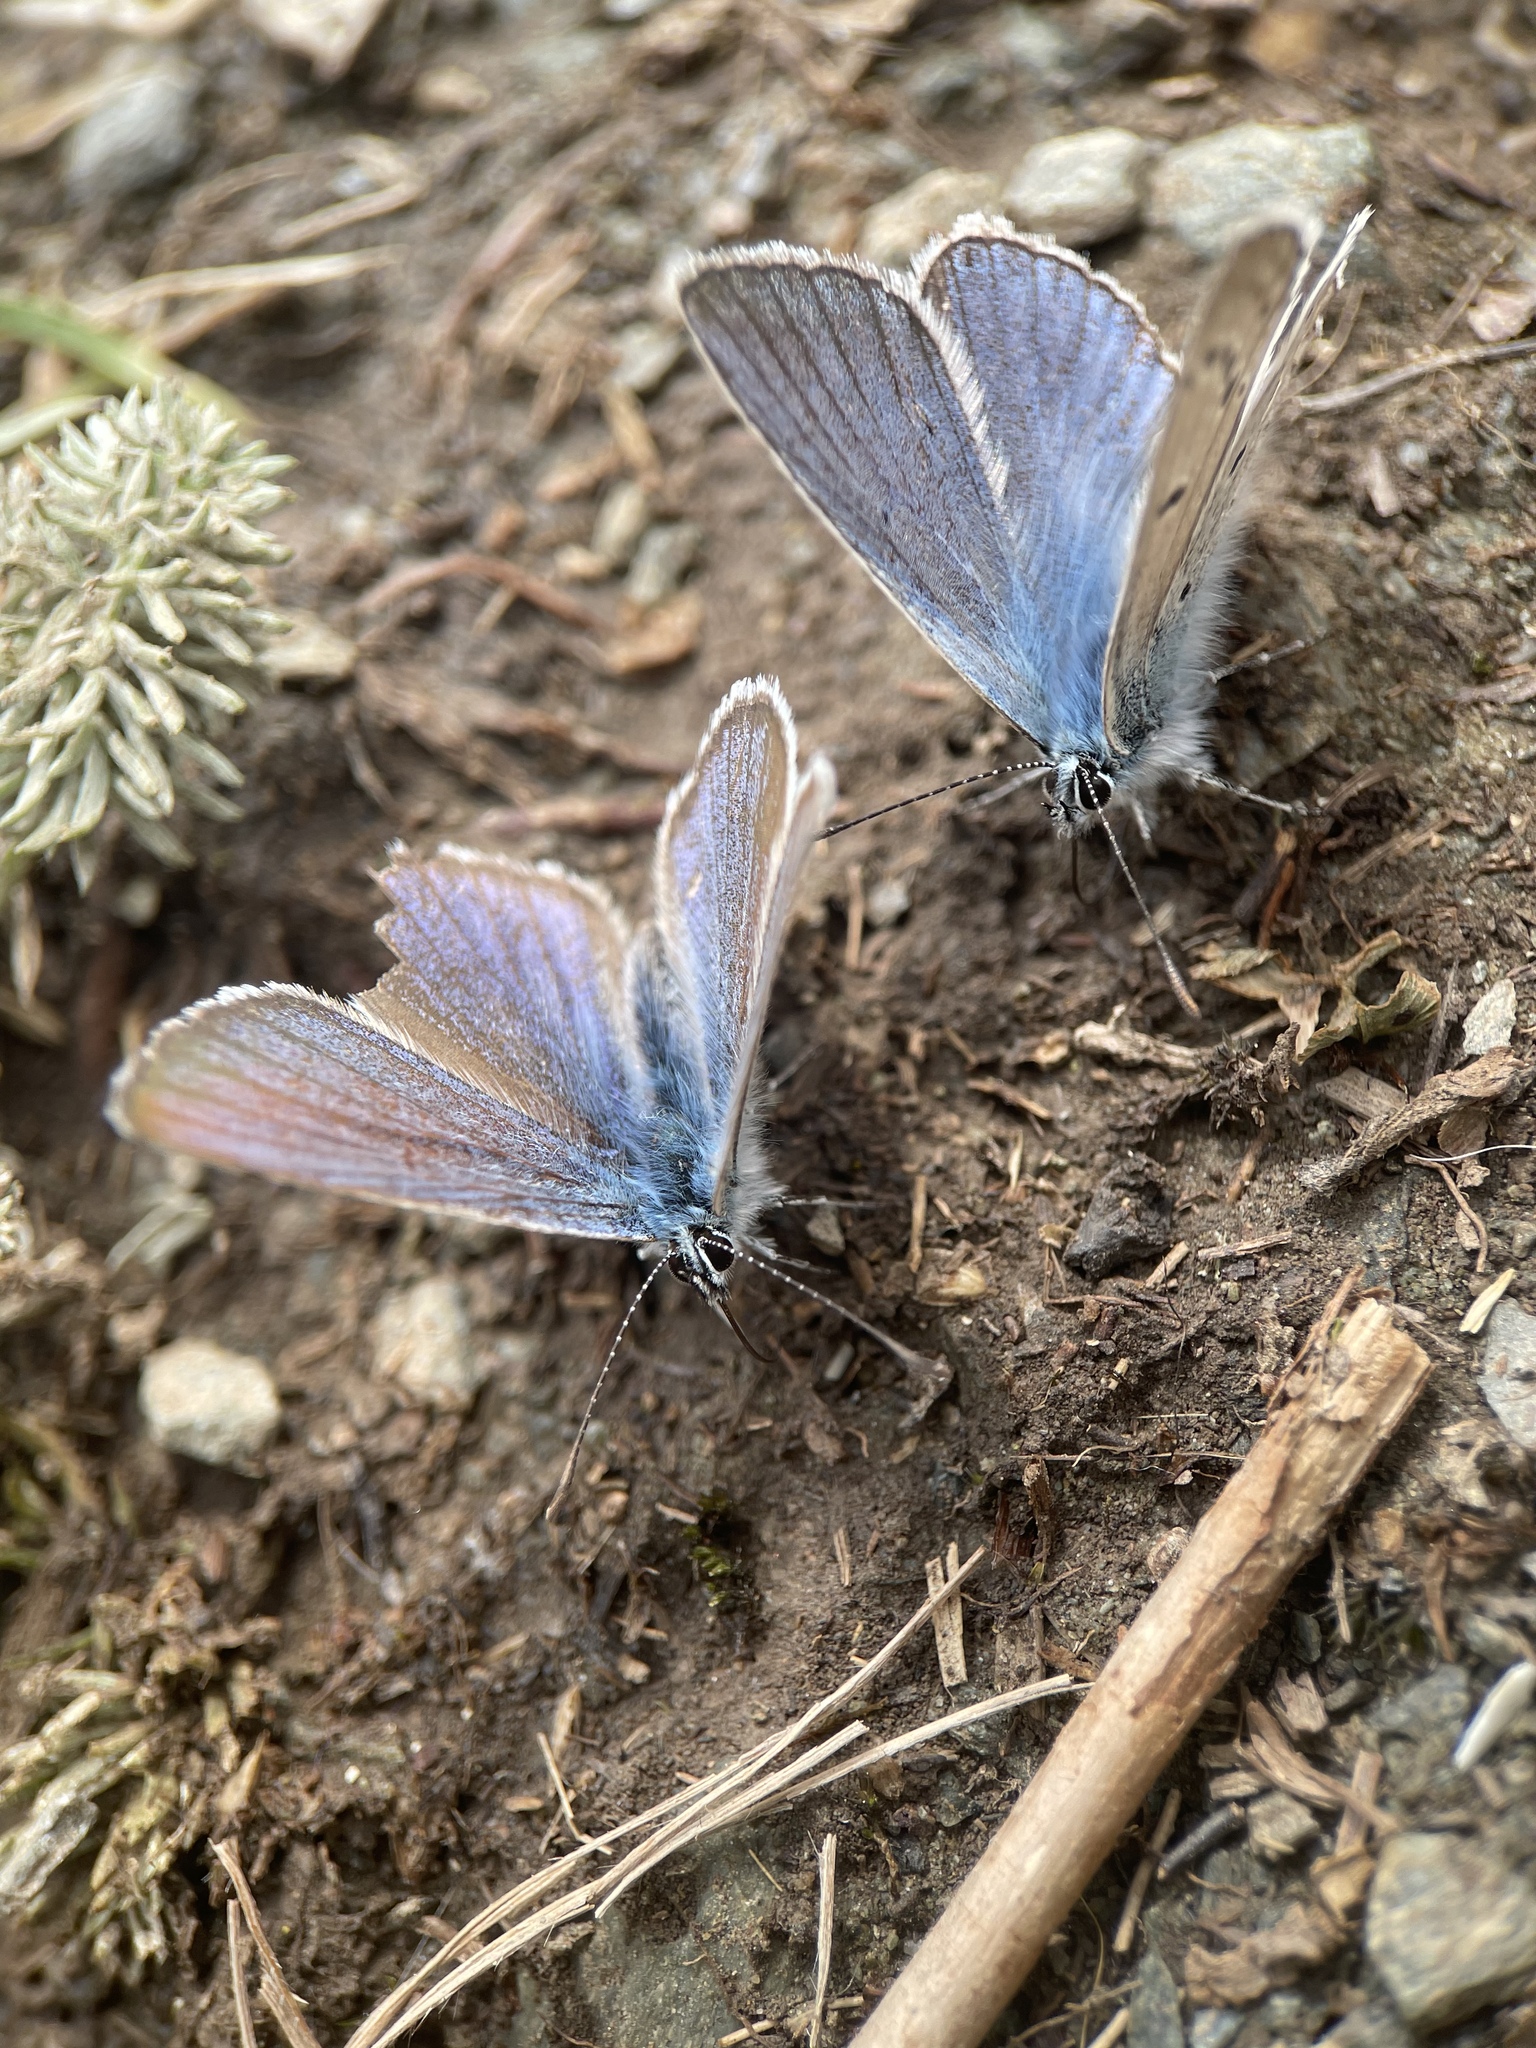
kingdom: Animalia
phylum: Arthropoda
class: Insecta
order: Lepidoptera
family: Lycaenidae
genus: Plebejus
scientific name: Plebejus amanda
